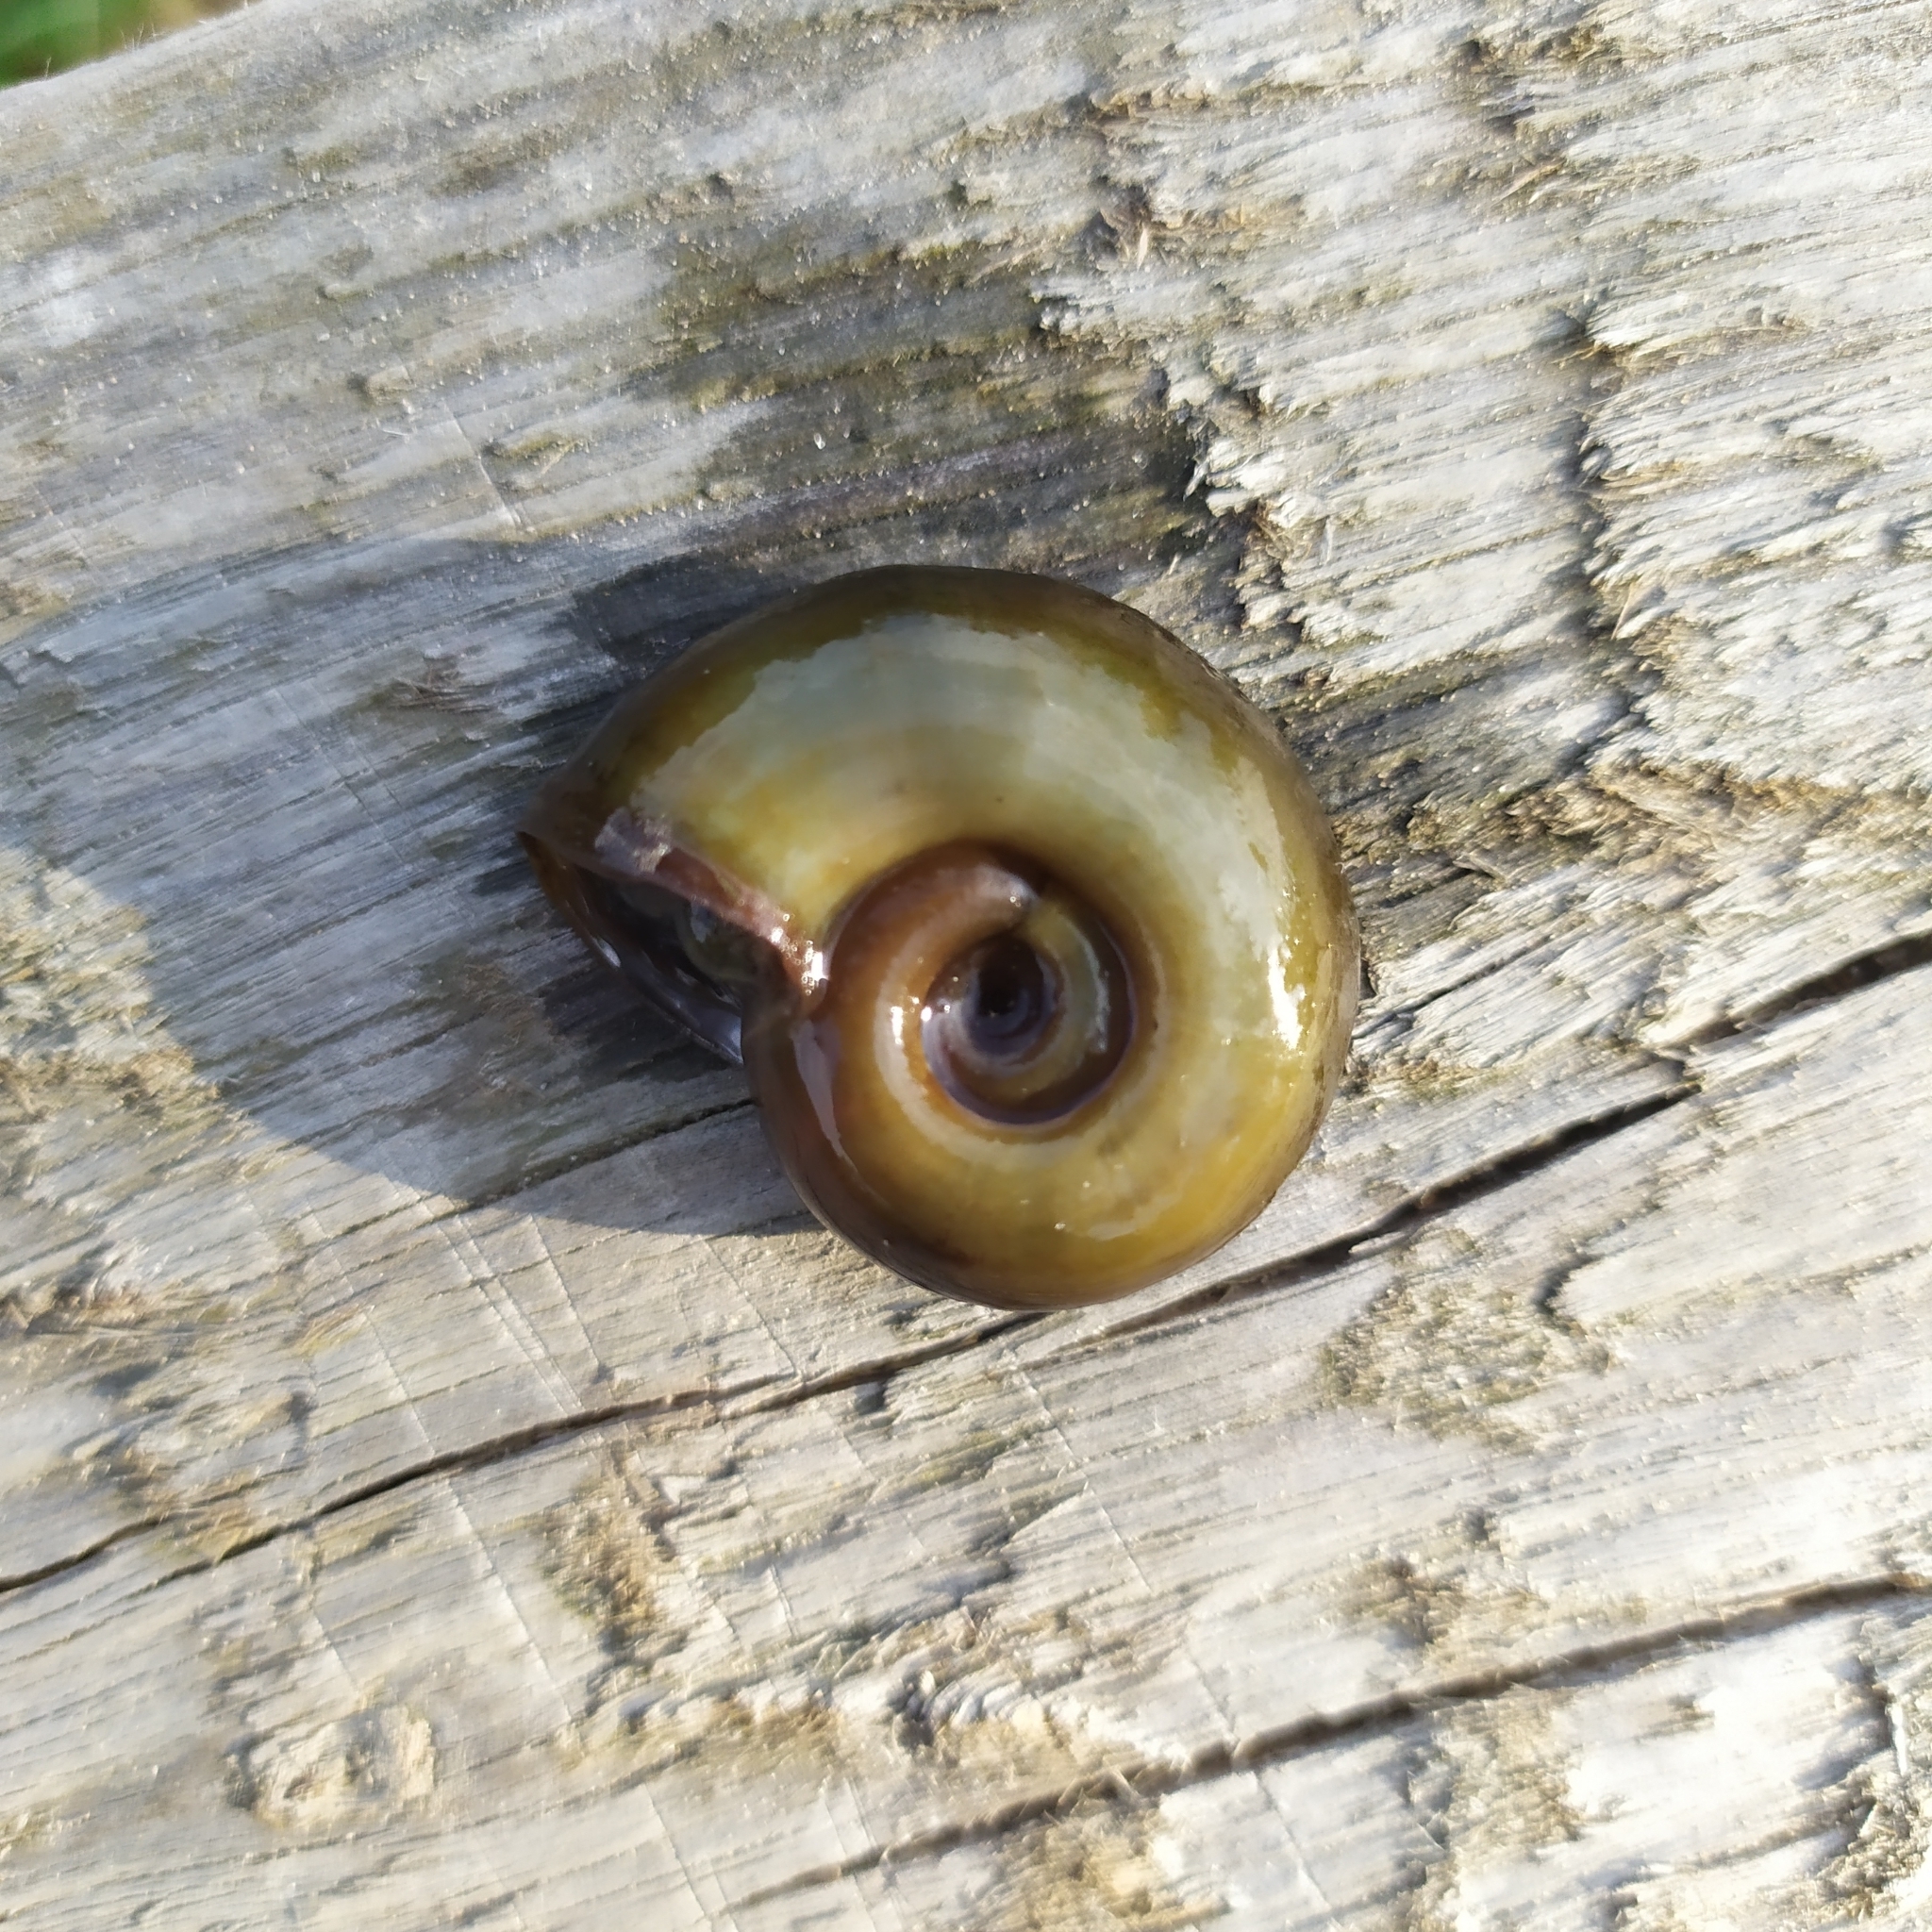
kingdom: Animalia
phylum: Mollusca
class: Gastropoda
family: Planorbidae
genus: Planorbarius
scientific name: Planorbarius corneus
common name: Great ramshorn
